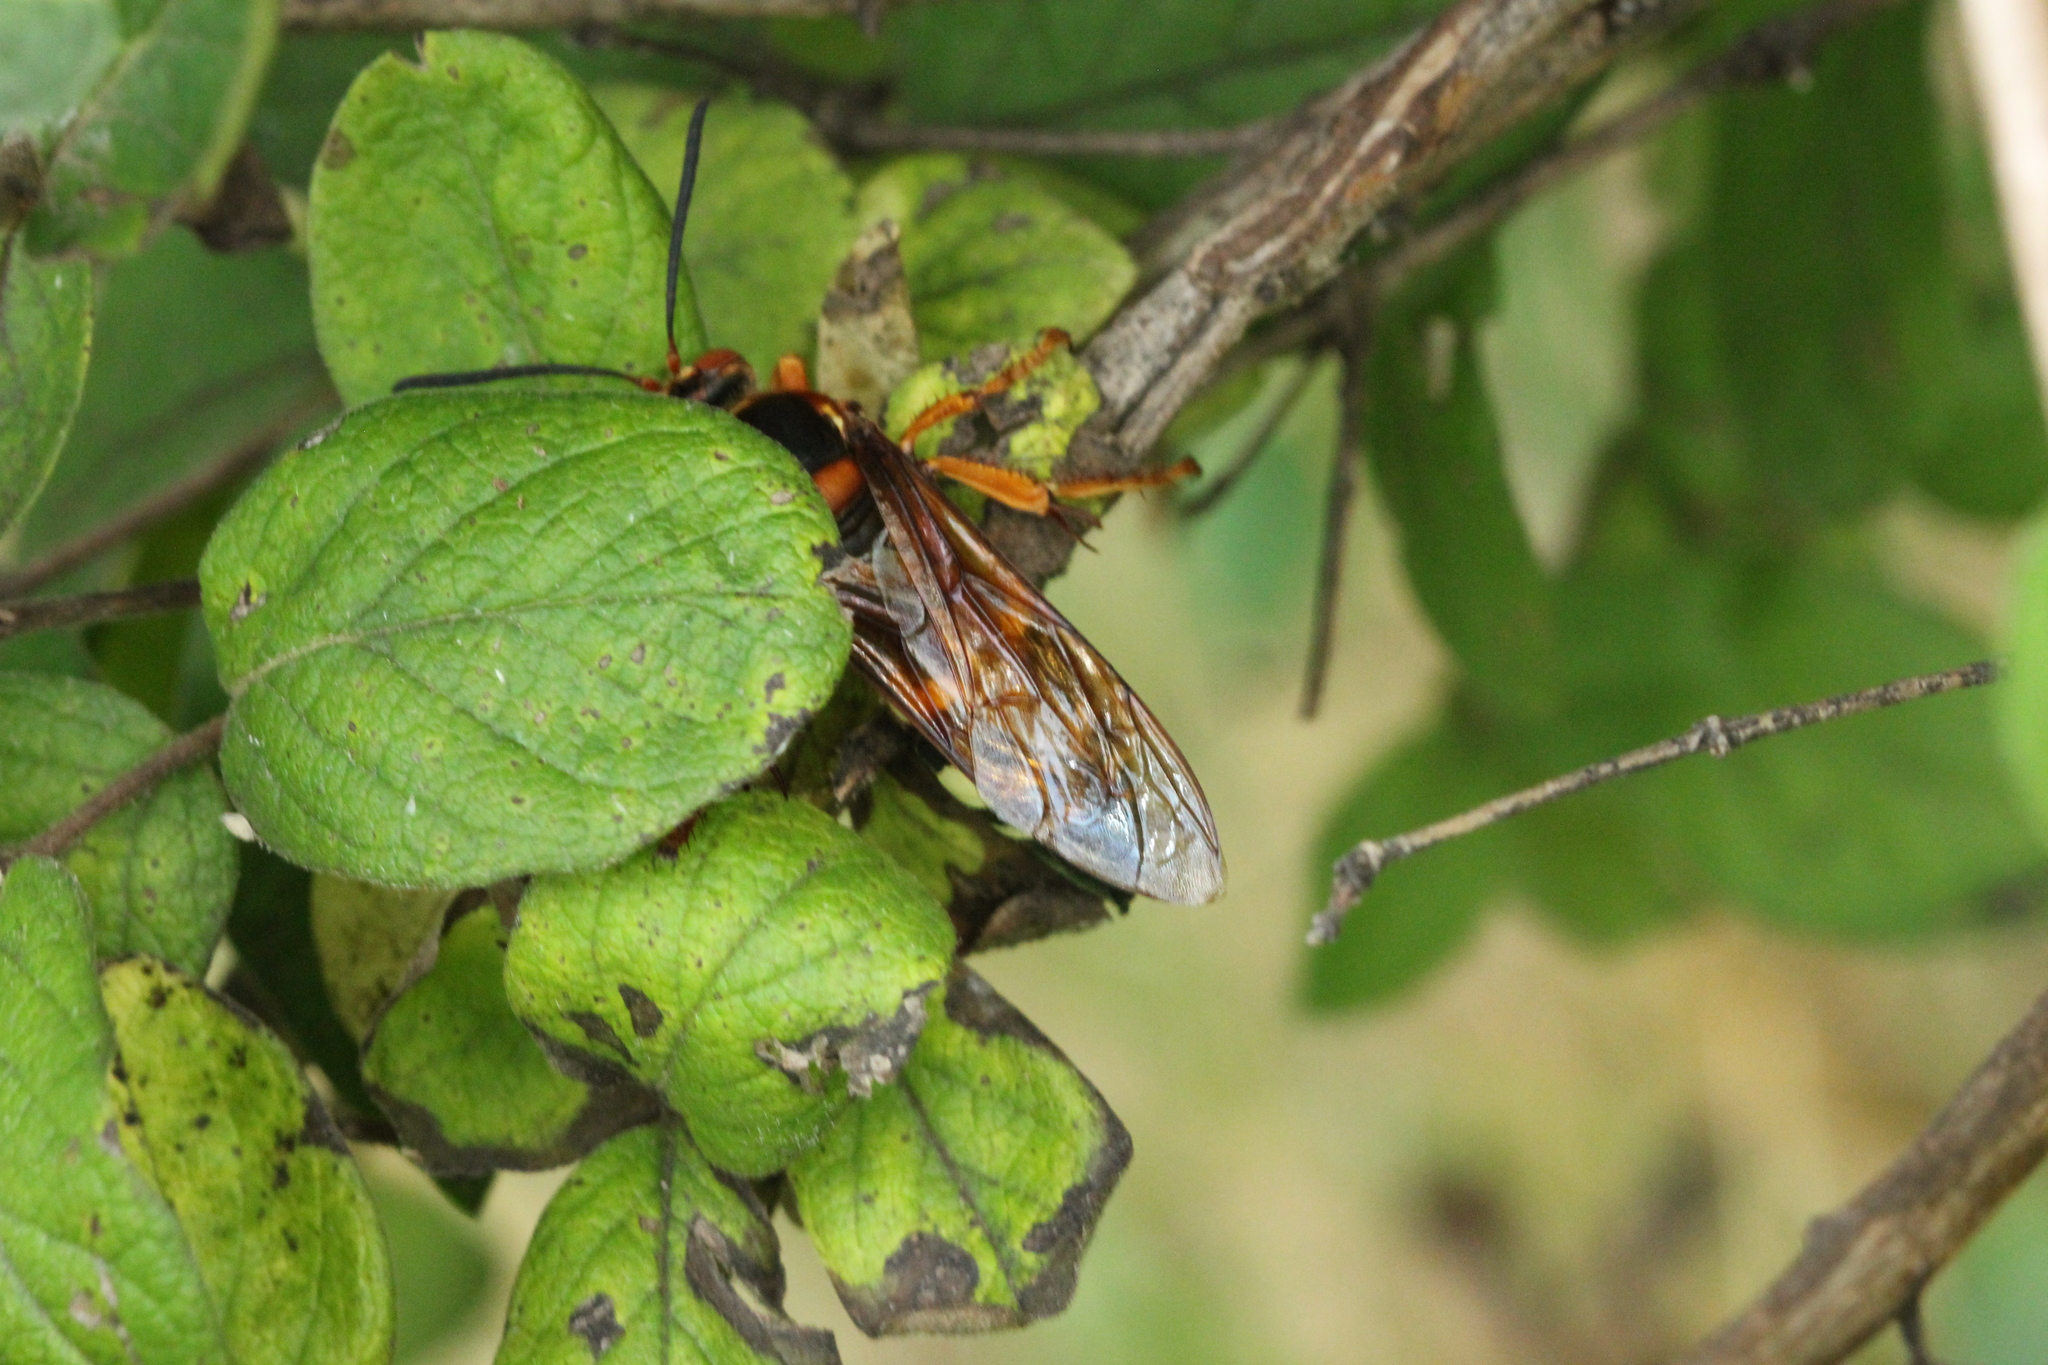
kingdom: Animalia
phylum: Arthropoda
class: Insecta
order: Hymenoptera
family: Crabronidae
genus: Sphecius
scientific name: Sphecius speciosus
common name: Cicada killer
